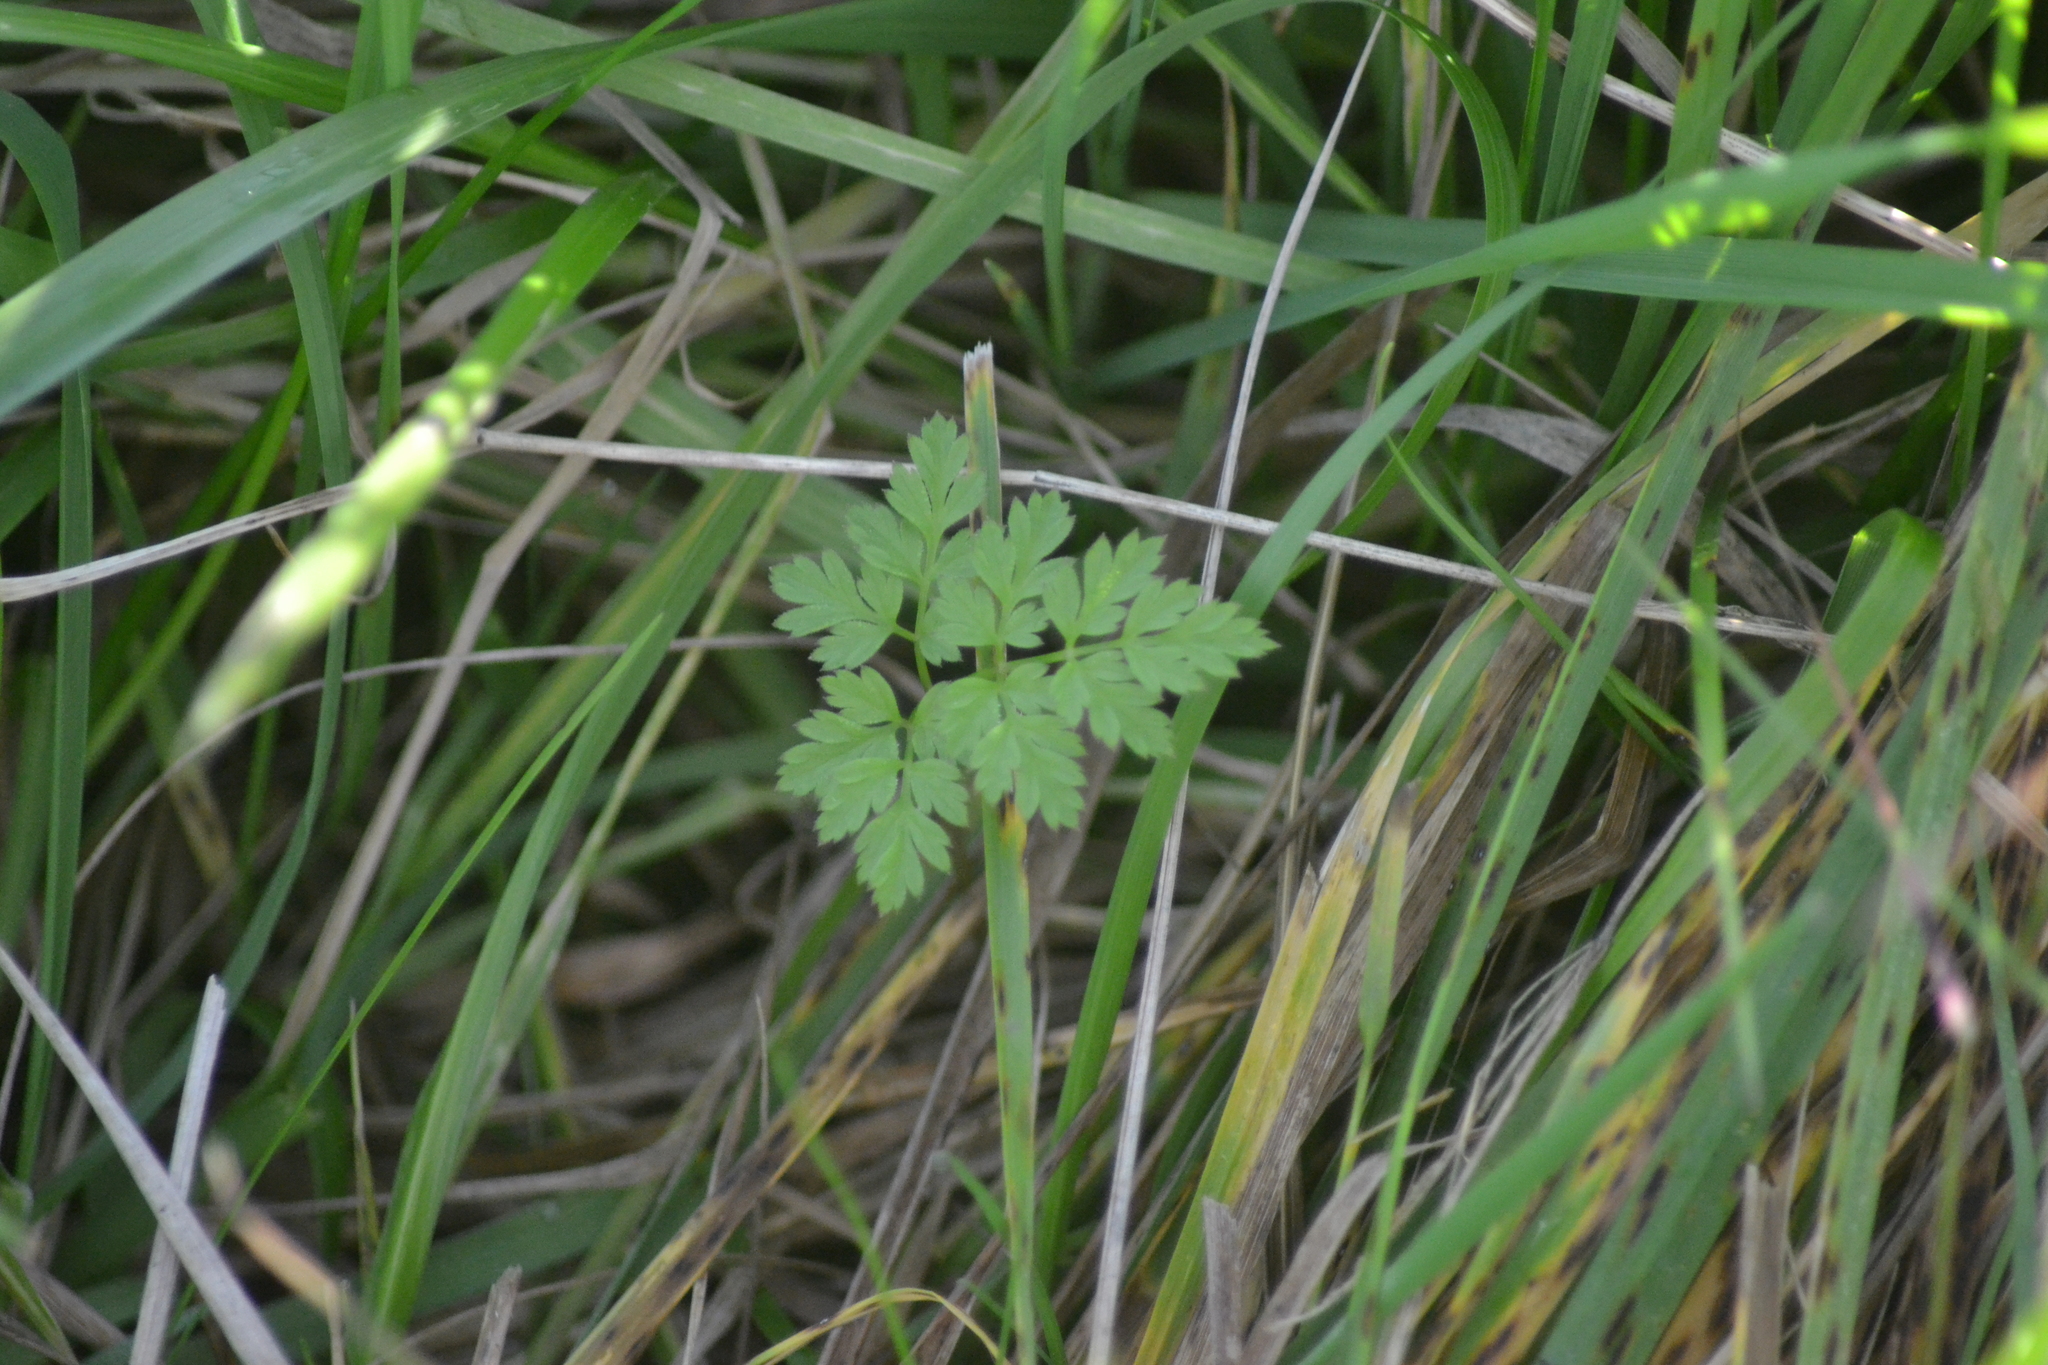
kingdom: Plantae
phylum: Tracheophyta
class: Magnoliopsida
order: Apiales
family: Apiaceae
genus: Anthriscus
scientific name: Anthriscus sylvestris
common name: Cow parsley
